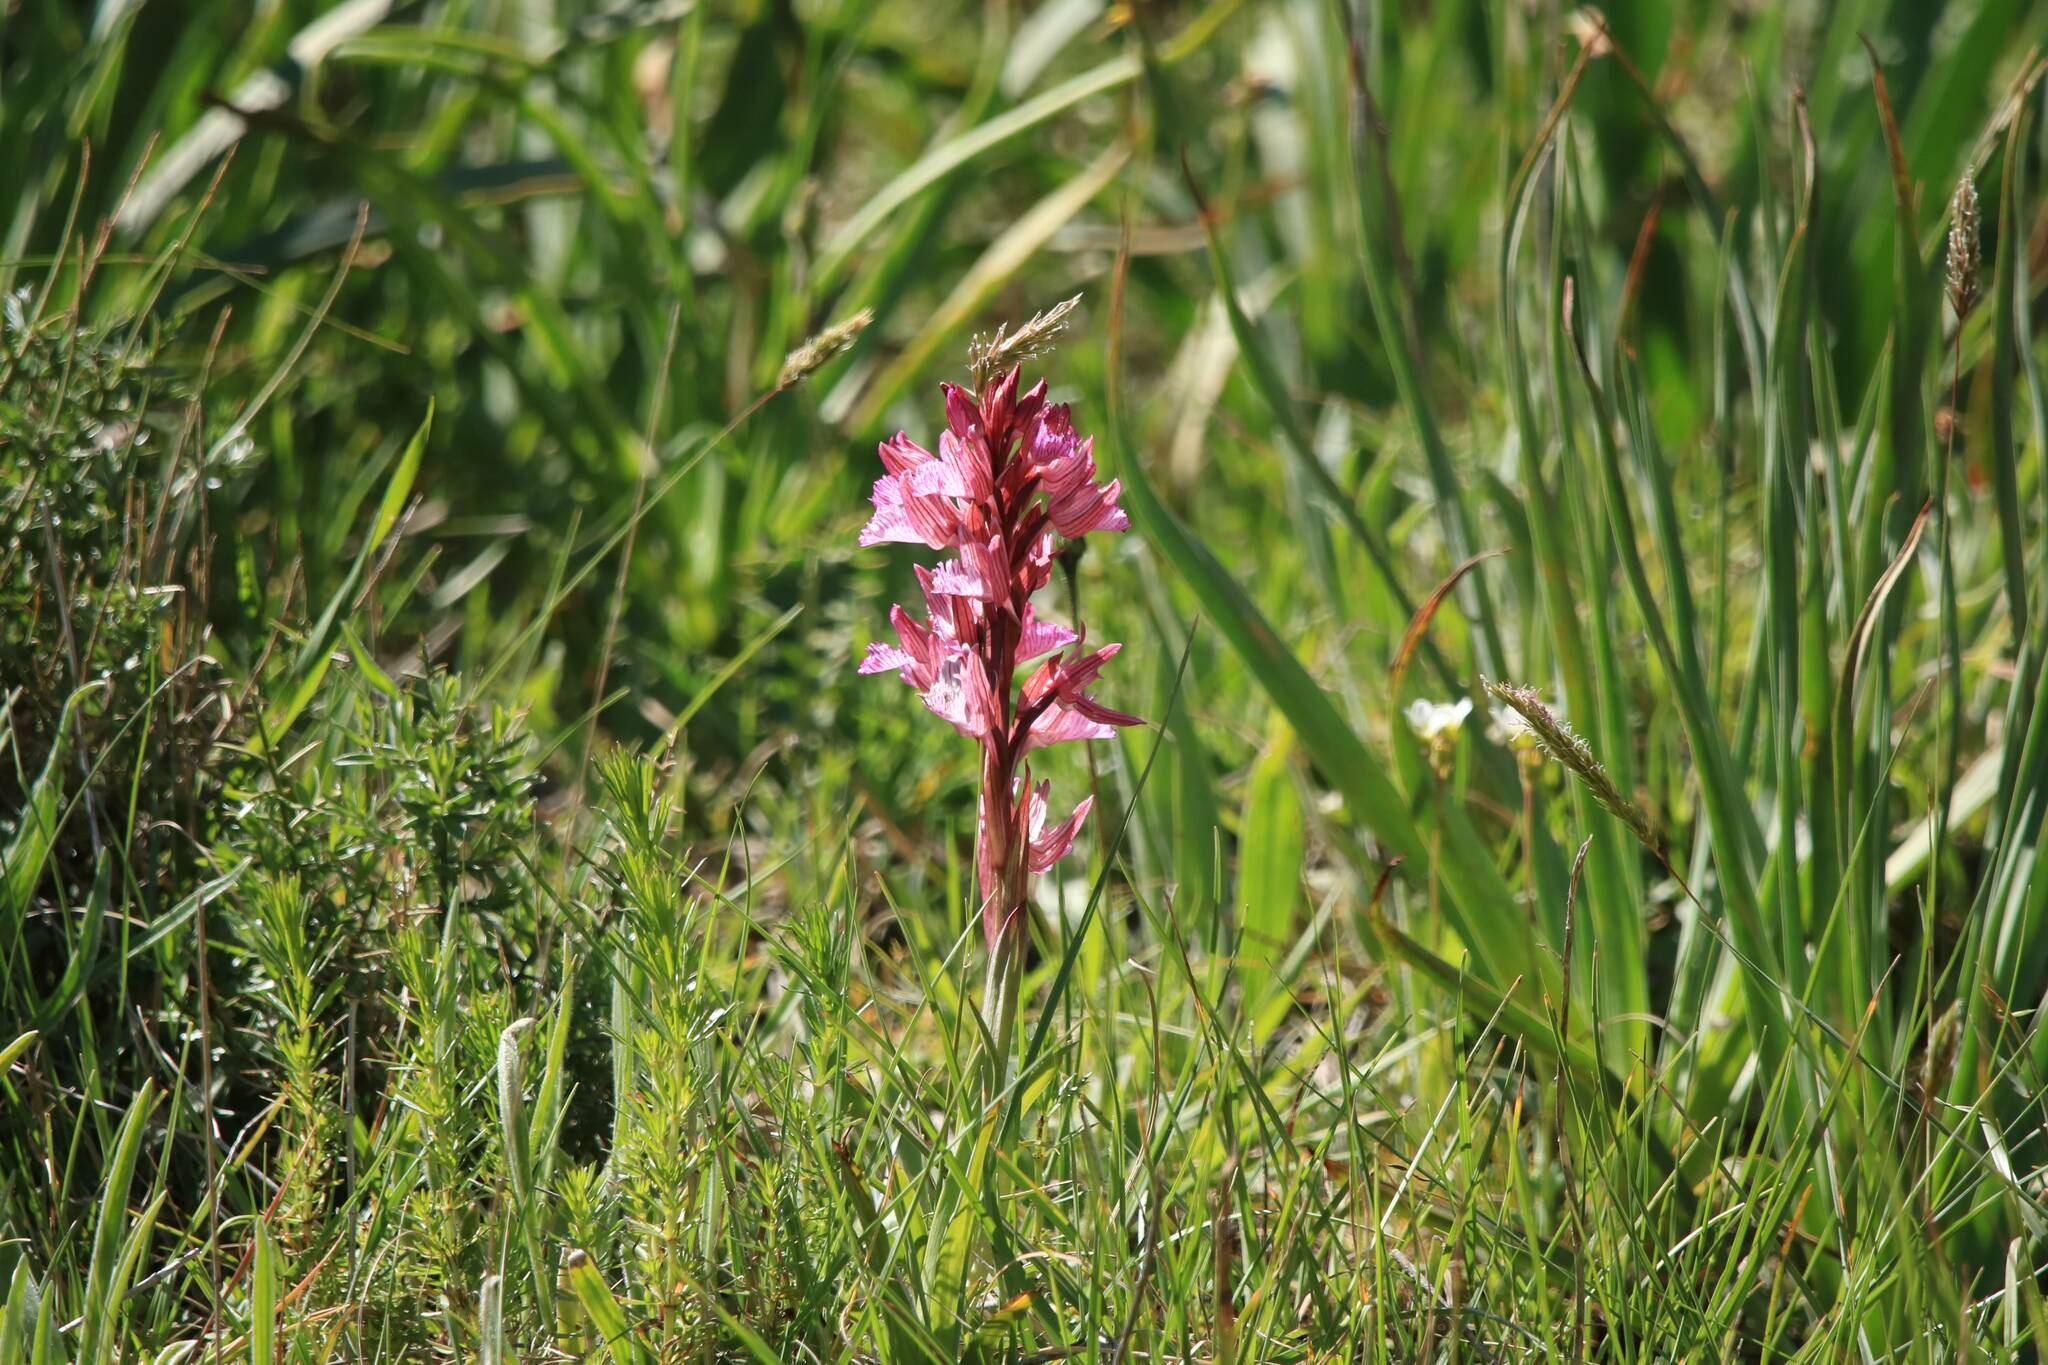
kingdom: Plantae
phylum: Tracheophyta
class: Liliopsida
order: Asparagales
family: Orchidaceae
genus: Anacamptis
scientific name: Anacamptis papilionacea
